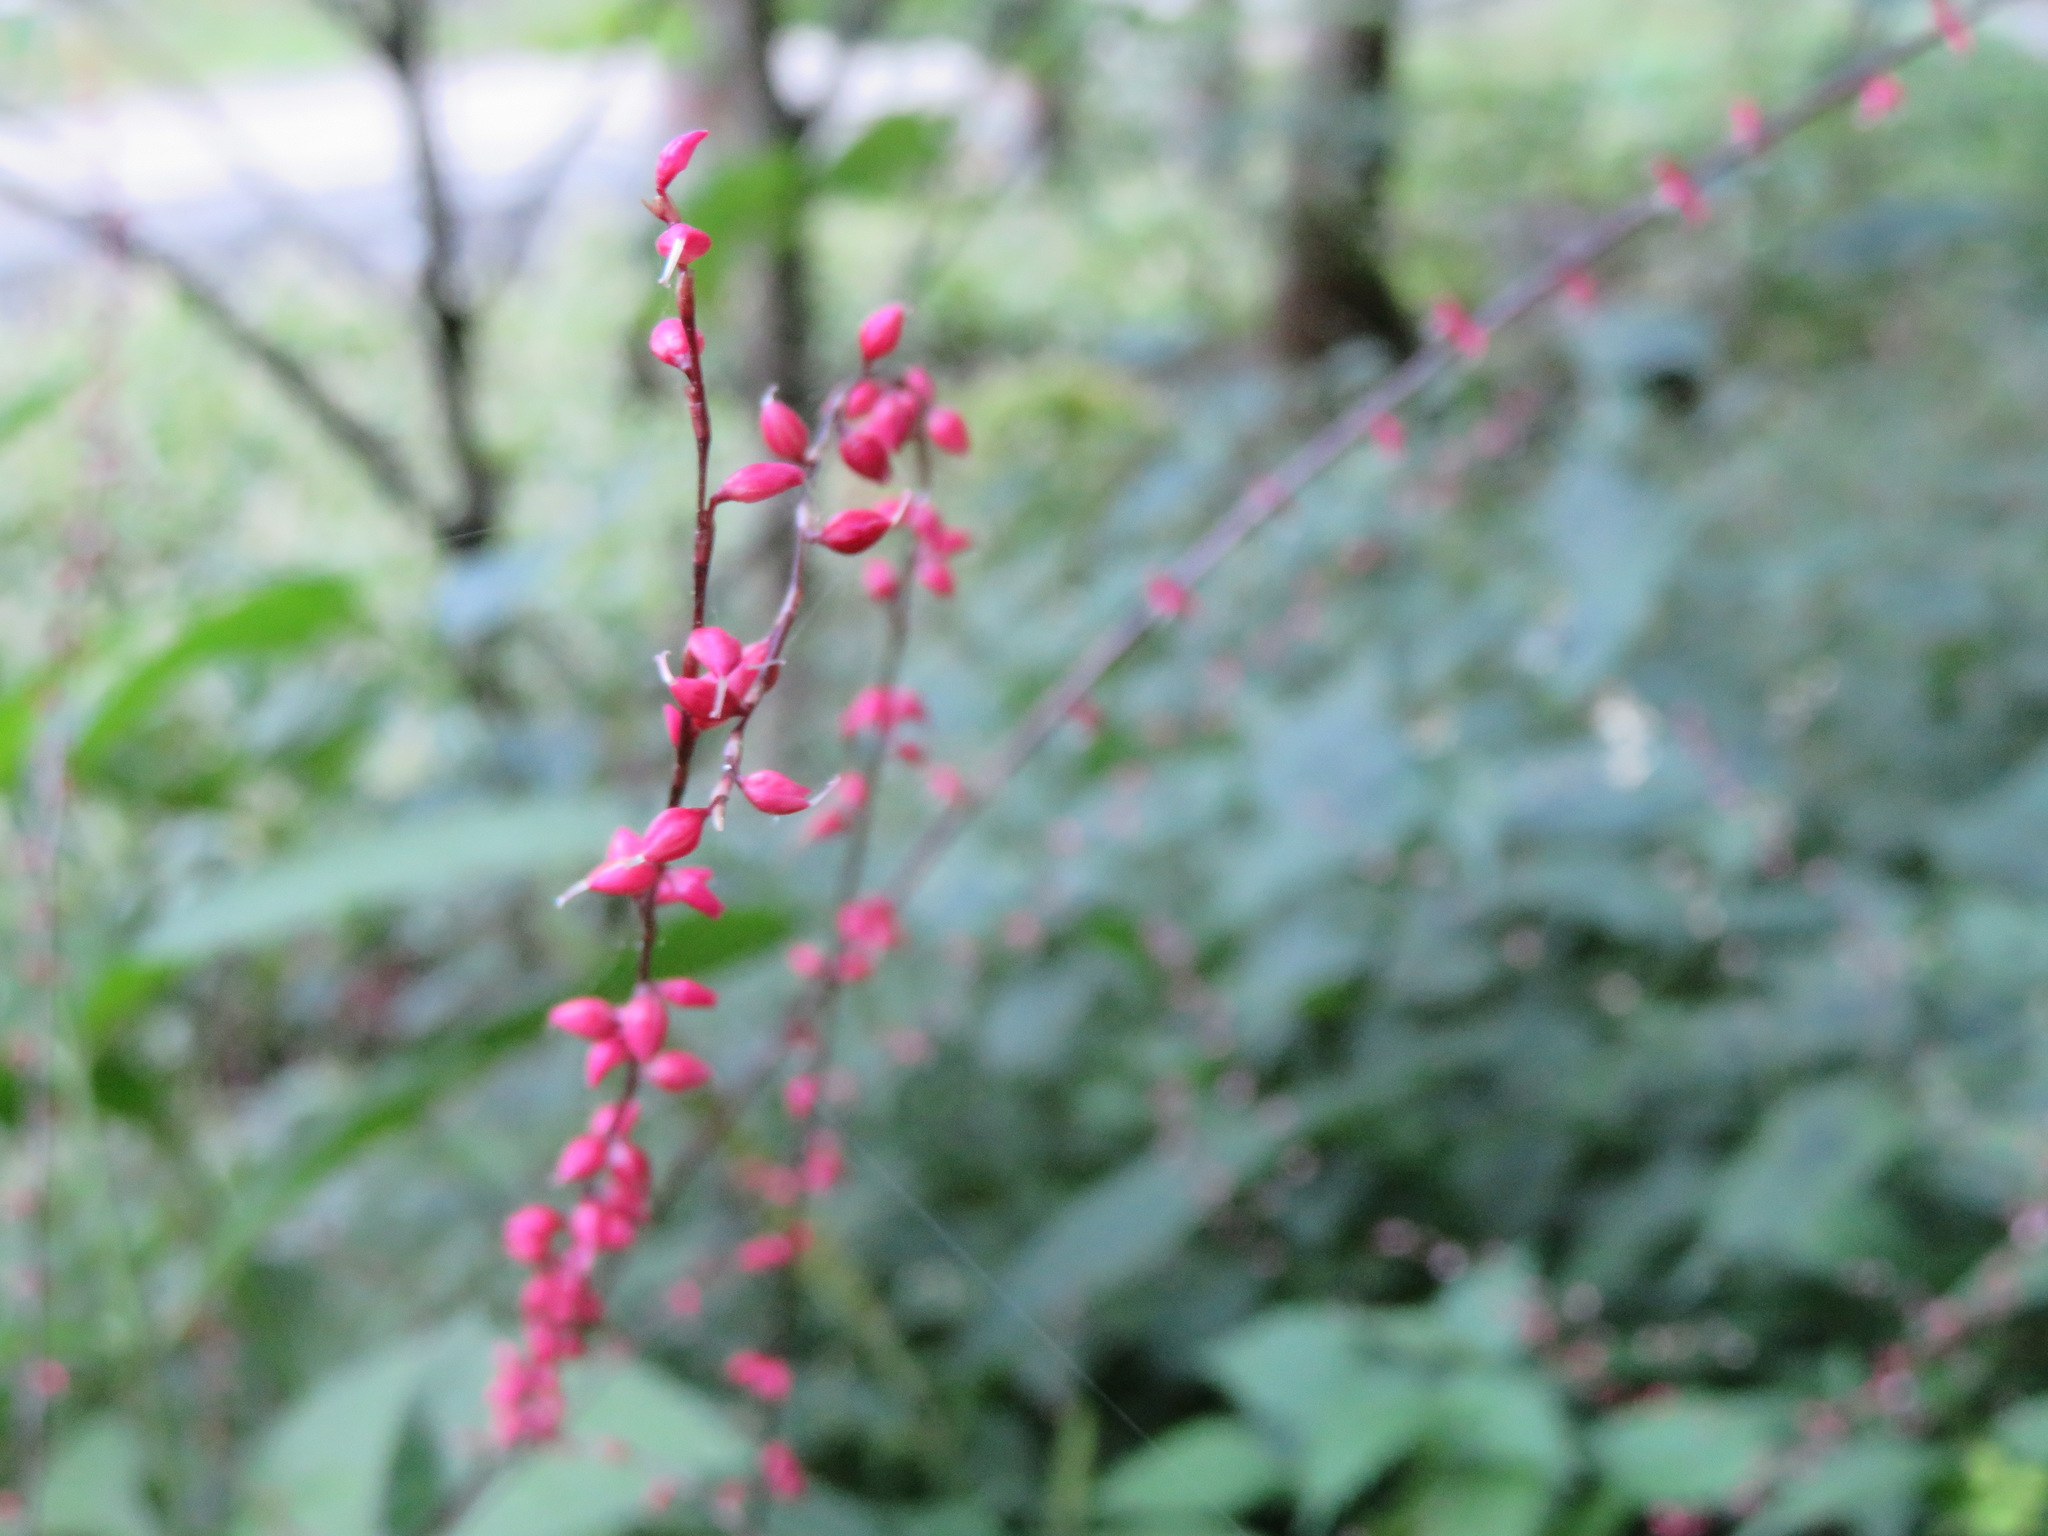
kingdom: Plantae
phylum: Tracheophyta
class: Magnoliopsida
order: Caryophyllales
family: Polygonaceae
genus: Persicaria
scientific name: Persicaria filiformis
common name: Asian jumpseed
